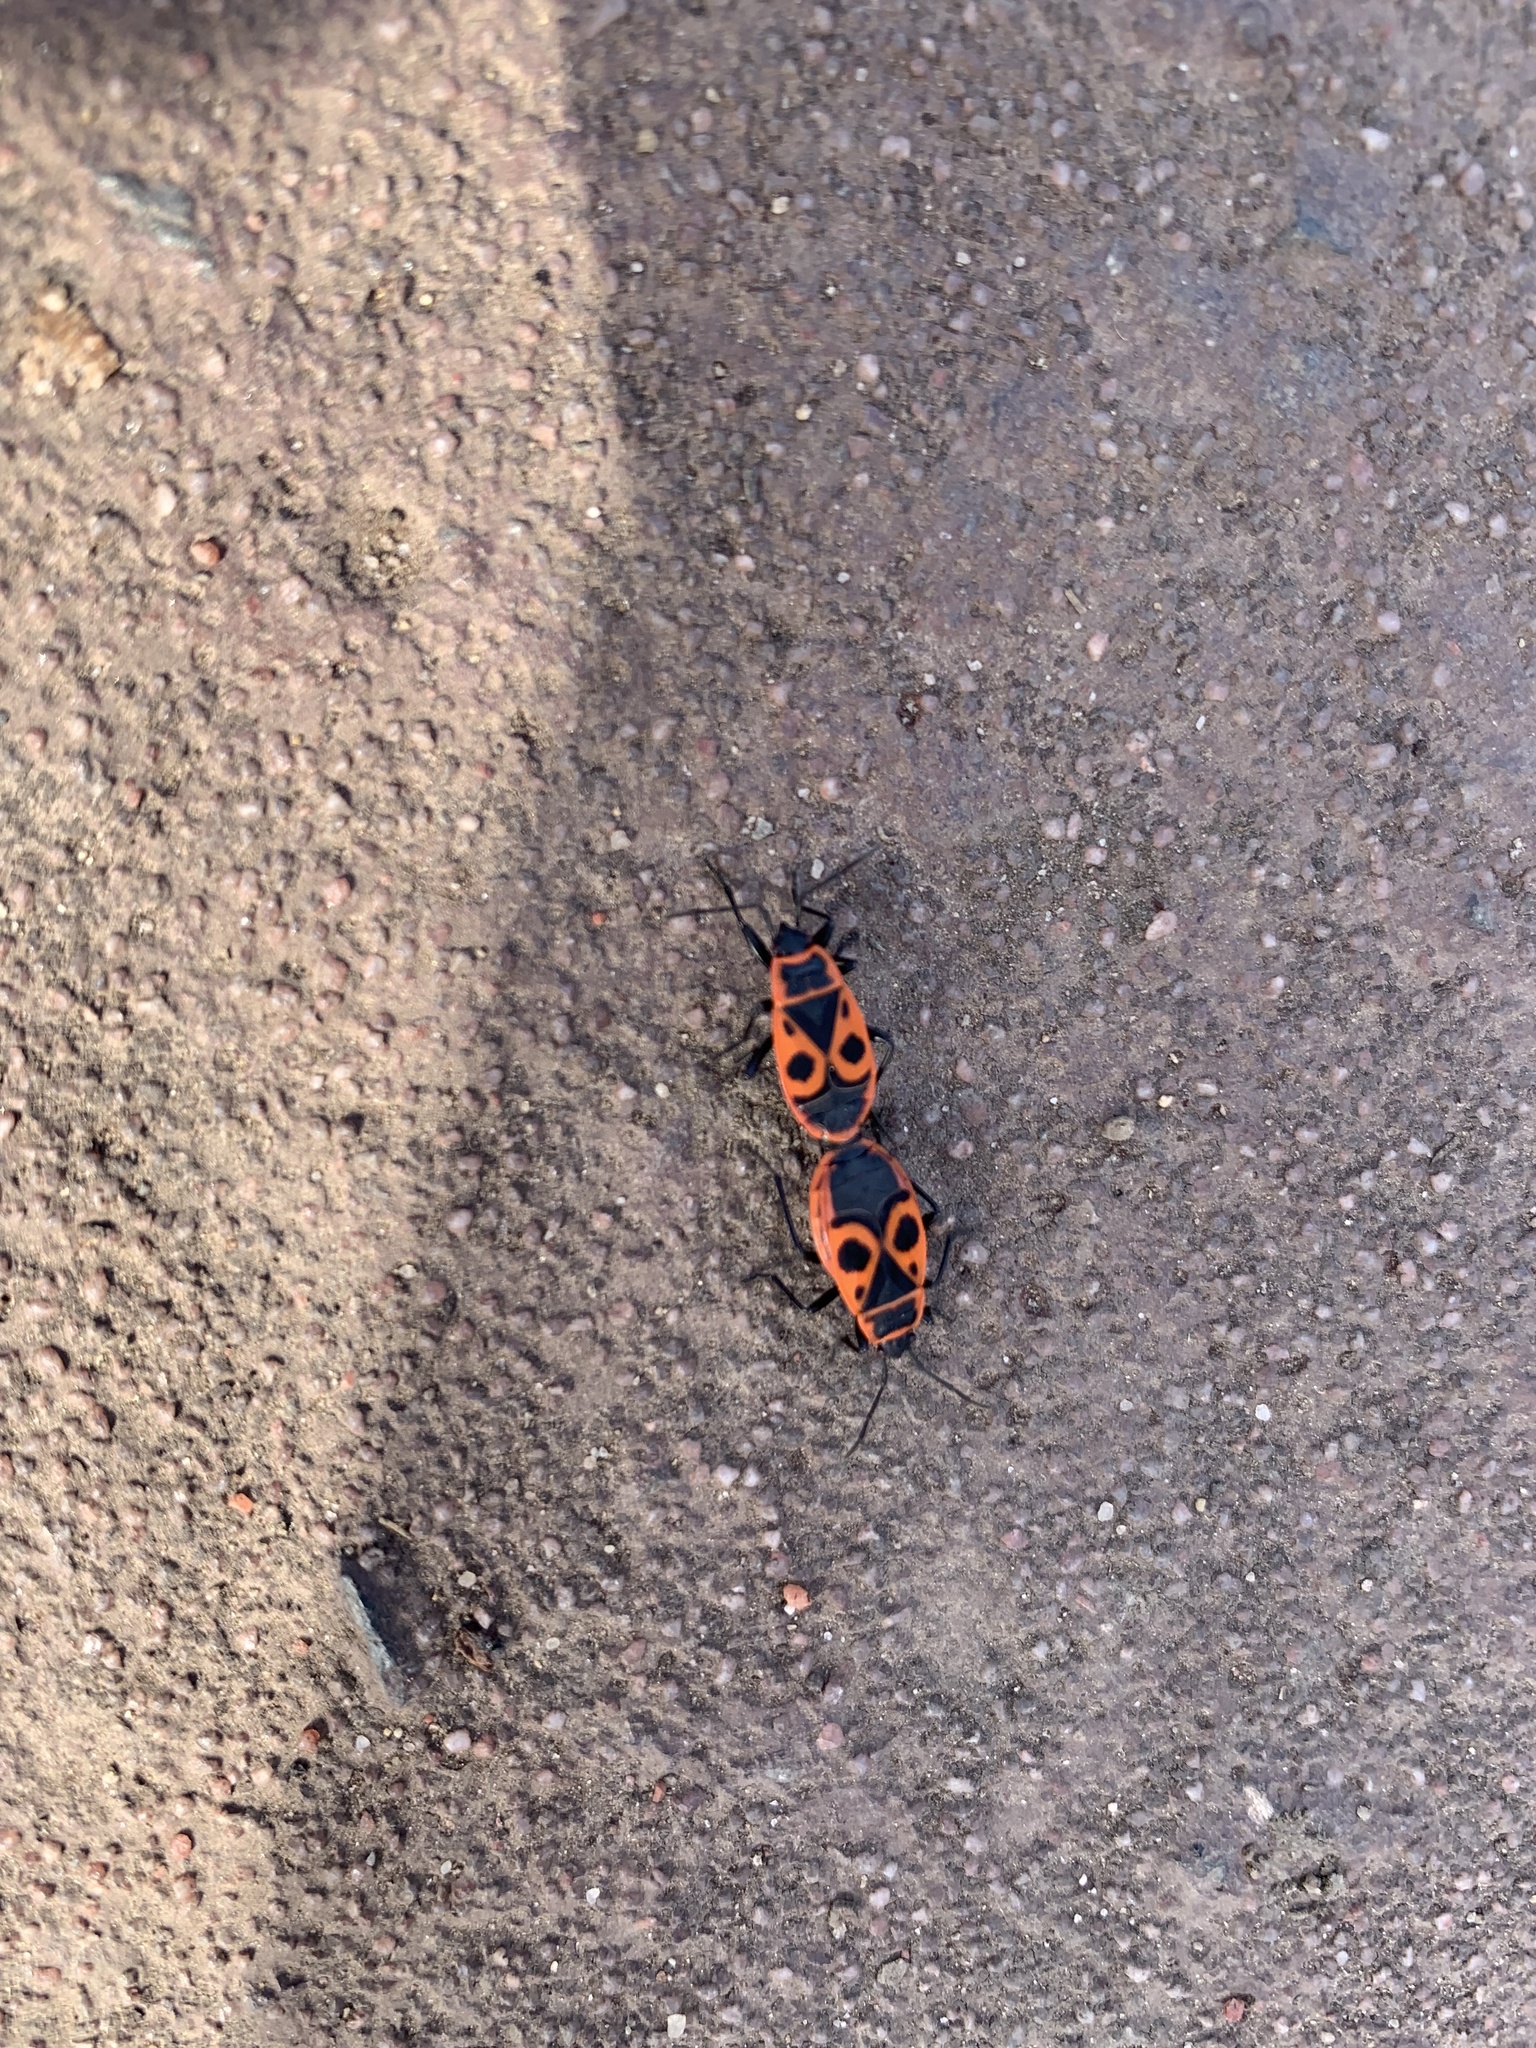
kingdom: Animalia
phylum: Arthropoda
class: Insecta
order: Hemiptera
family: Pyrrhocoridae
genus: Pyrrhocoris
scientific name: Pyrrhocoris apterus
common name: Firebug
